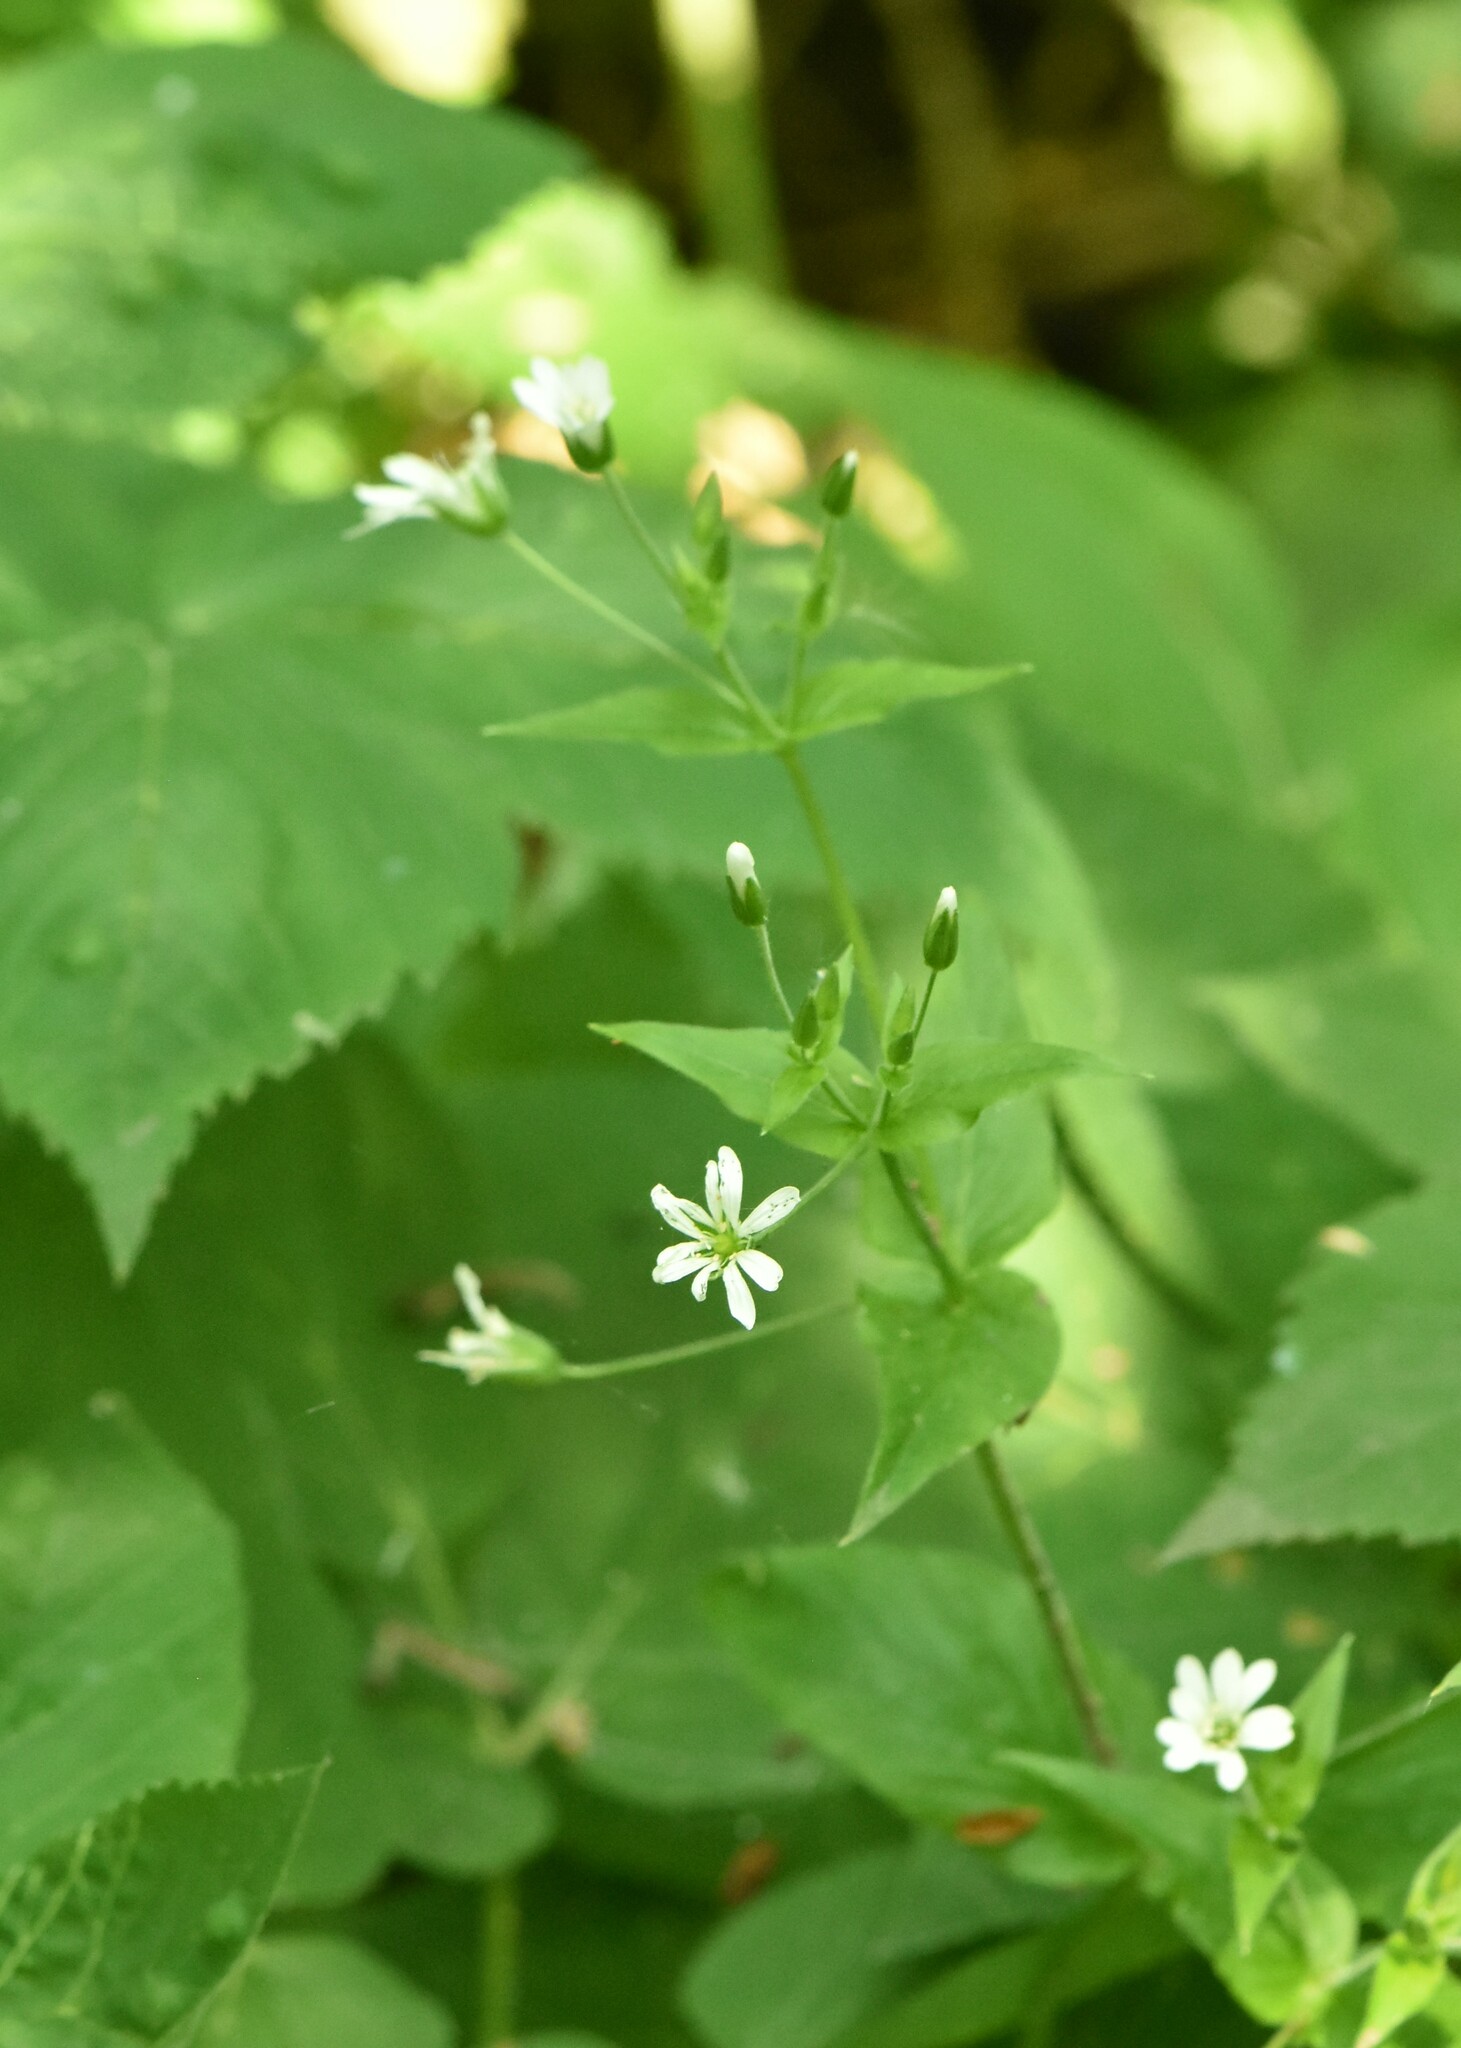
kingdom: Plantae
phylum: Tracheophyta
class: Magnoliopsida
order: Caryophyllales
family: Caryophyllaceae
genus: Stellaria
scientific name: Stellaria nemorum
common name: Wood stitchwort
